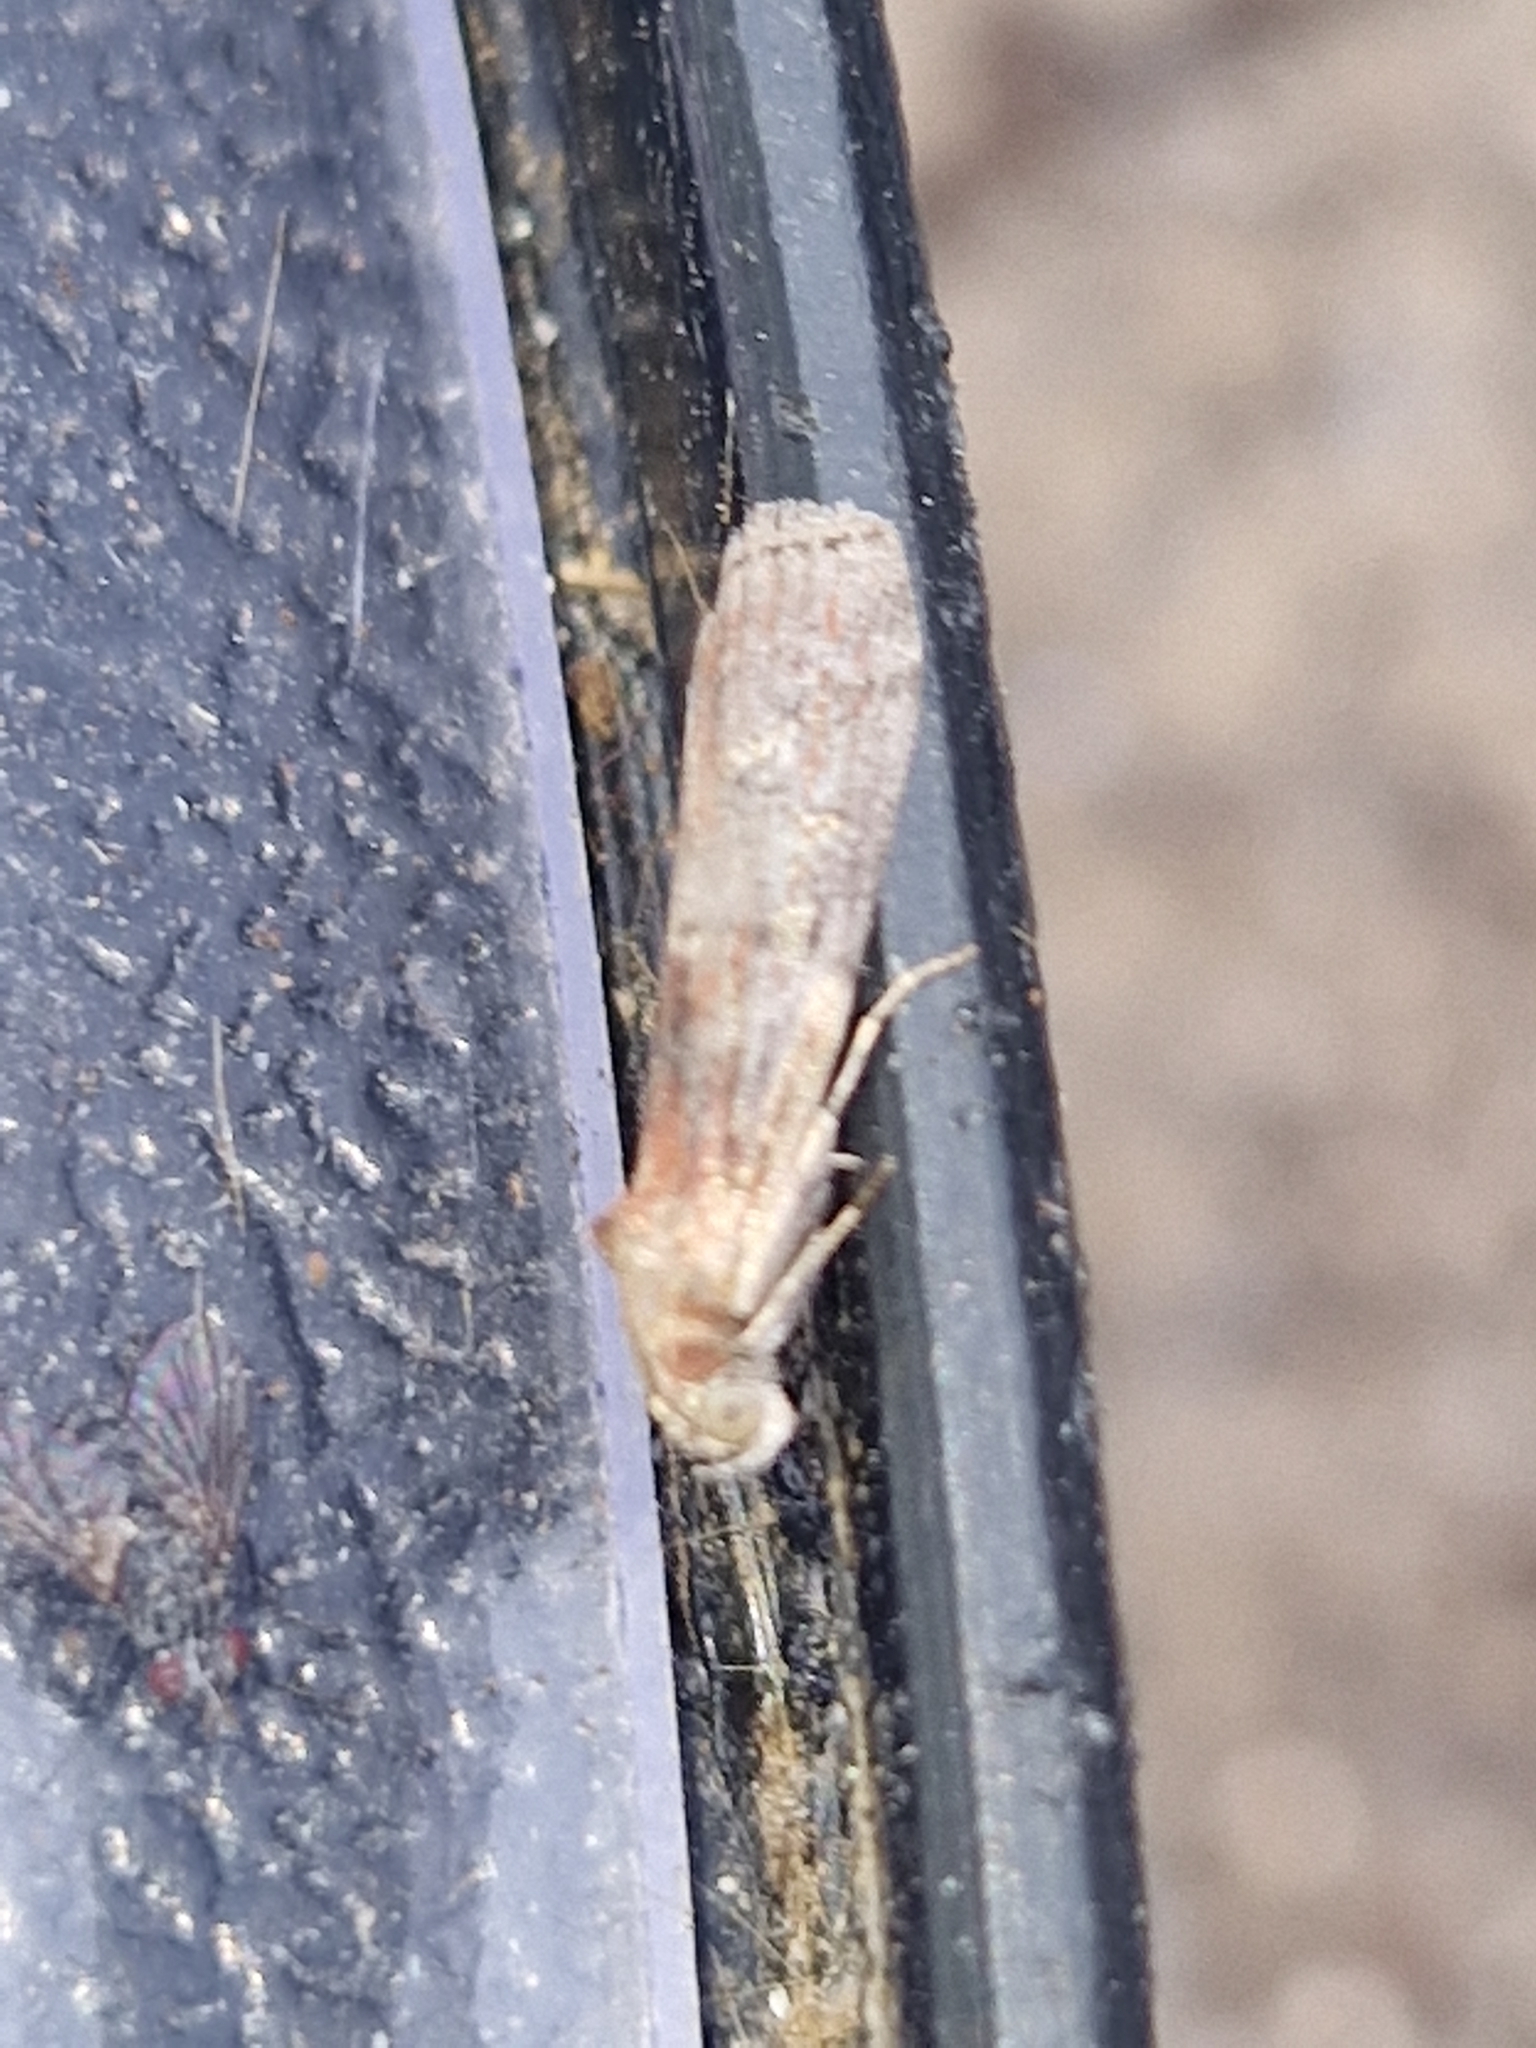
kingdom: Animalia
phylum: Arthropoda
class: Insecta
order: Lepidoptera
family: Pyralidae
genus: Phycita
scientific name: Phycita roborella
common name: Dotted oak knot-horn
